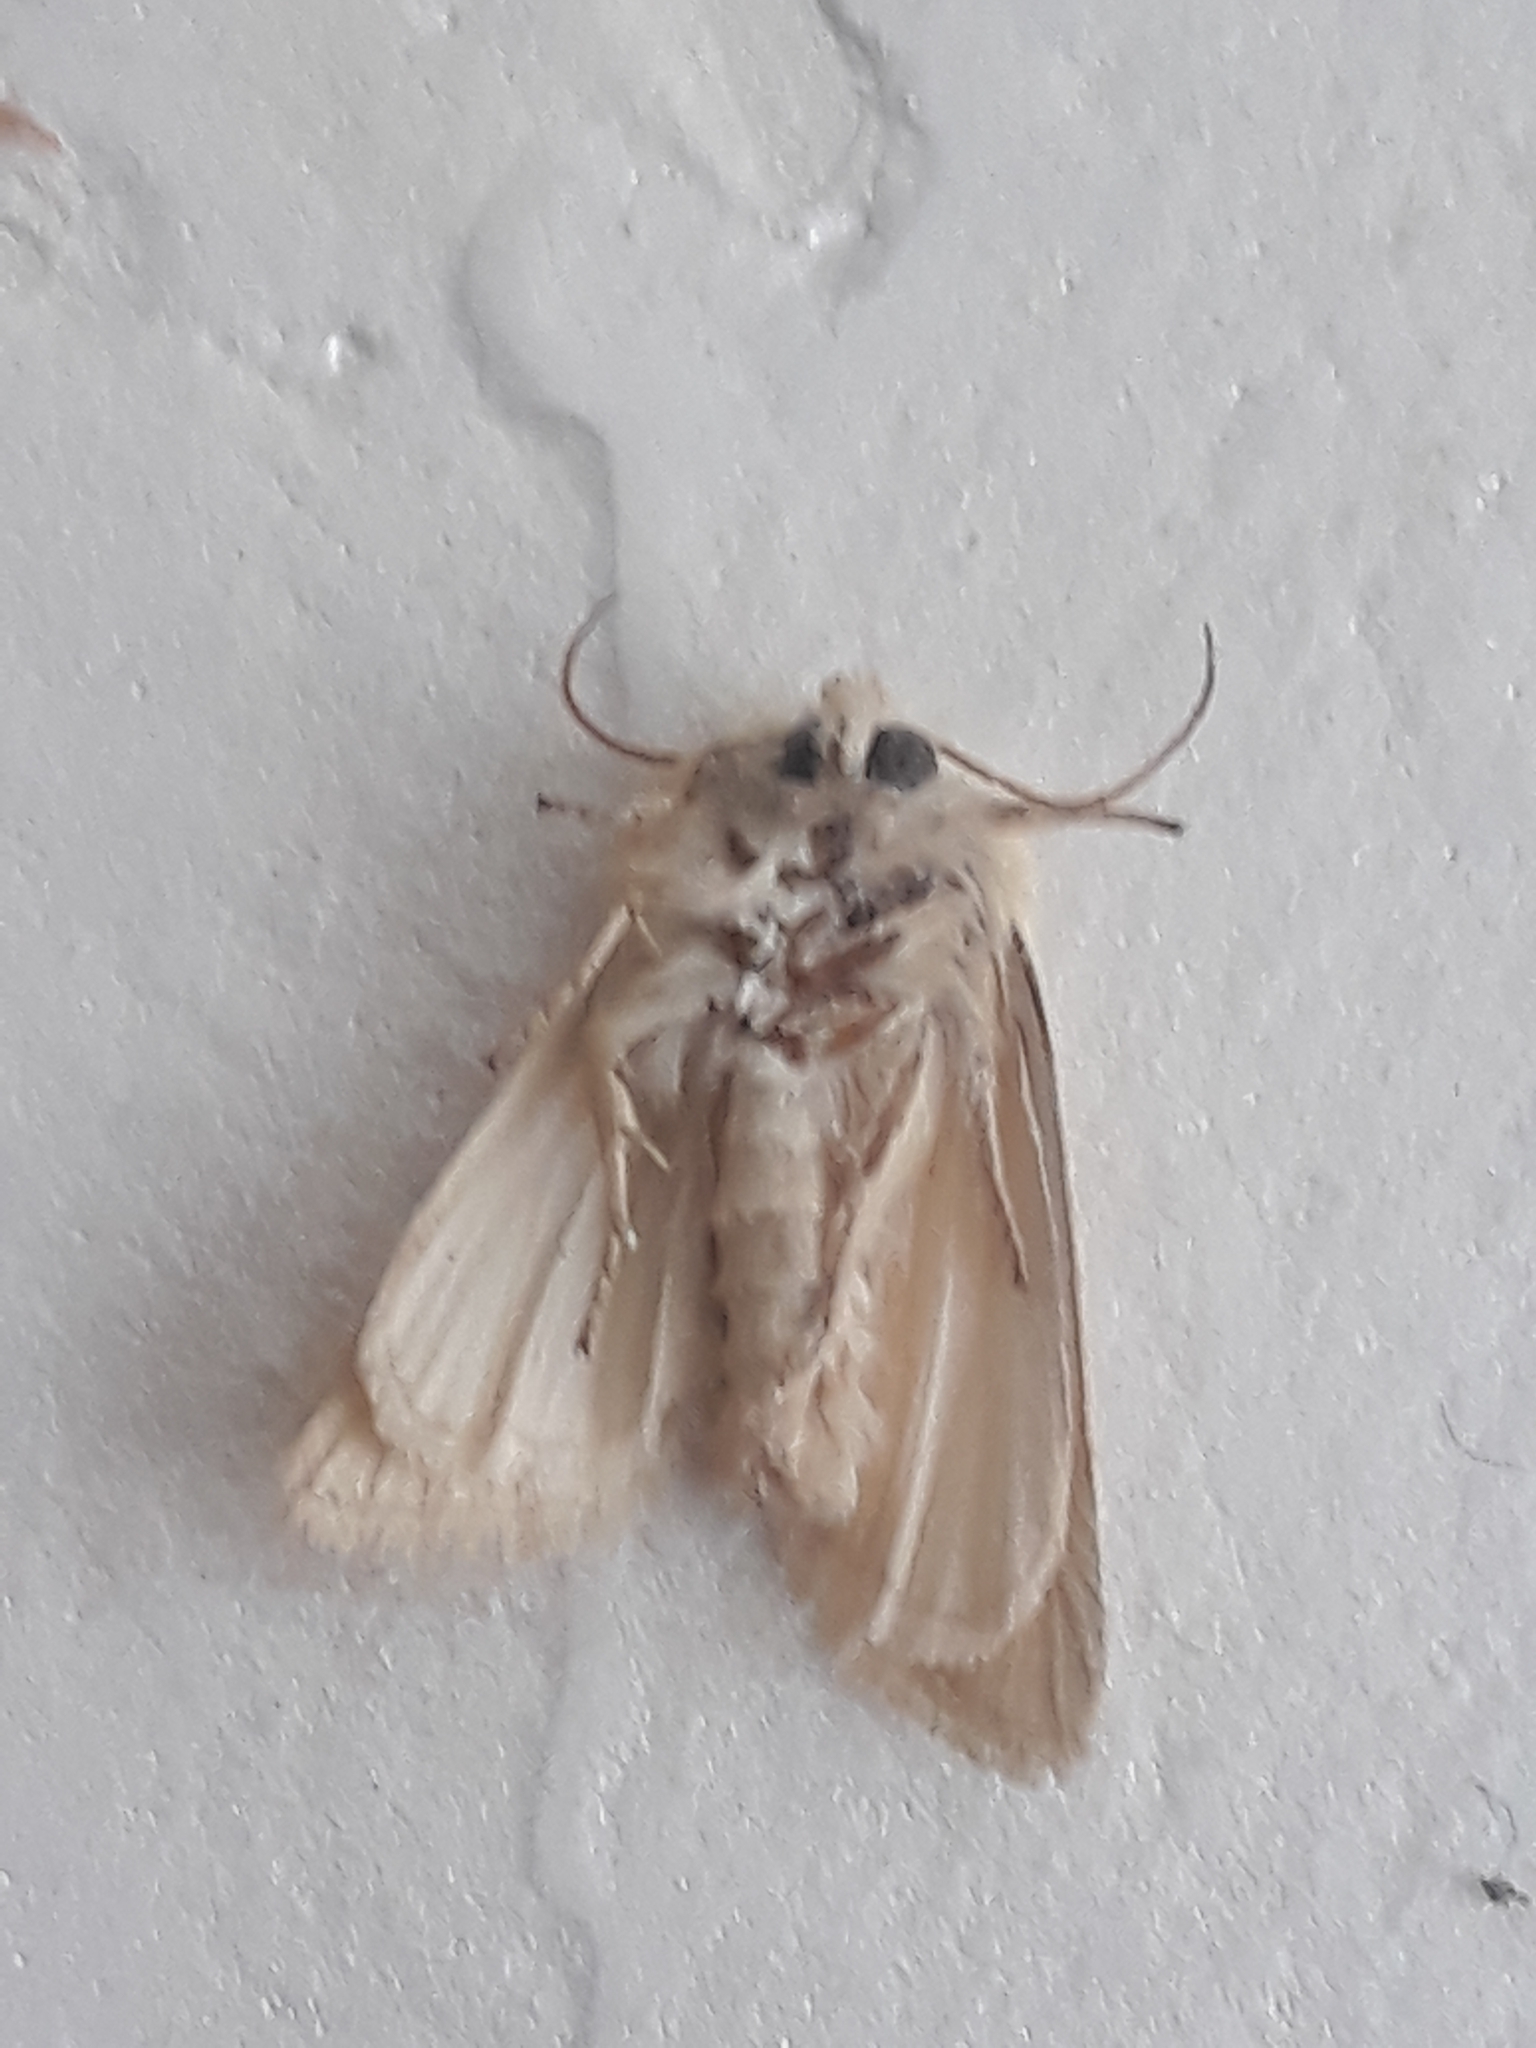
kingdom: Animalia
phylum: Arthropoda
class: Insecta
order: Lepidoptera
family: Noctuidae
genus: Oria
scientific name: Oria musculosa
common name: Brighton wainscot
